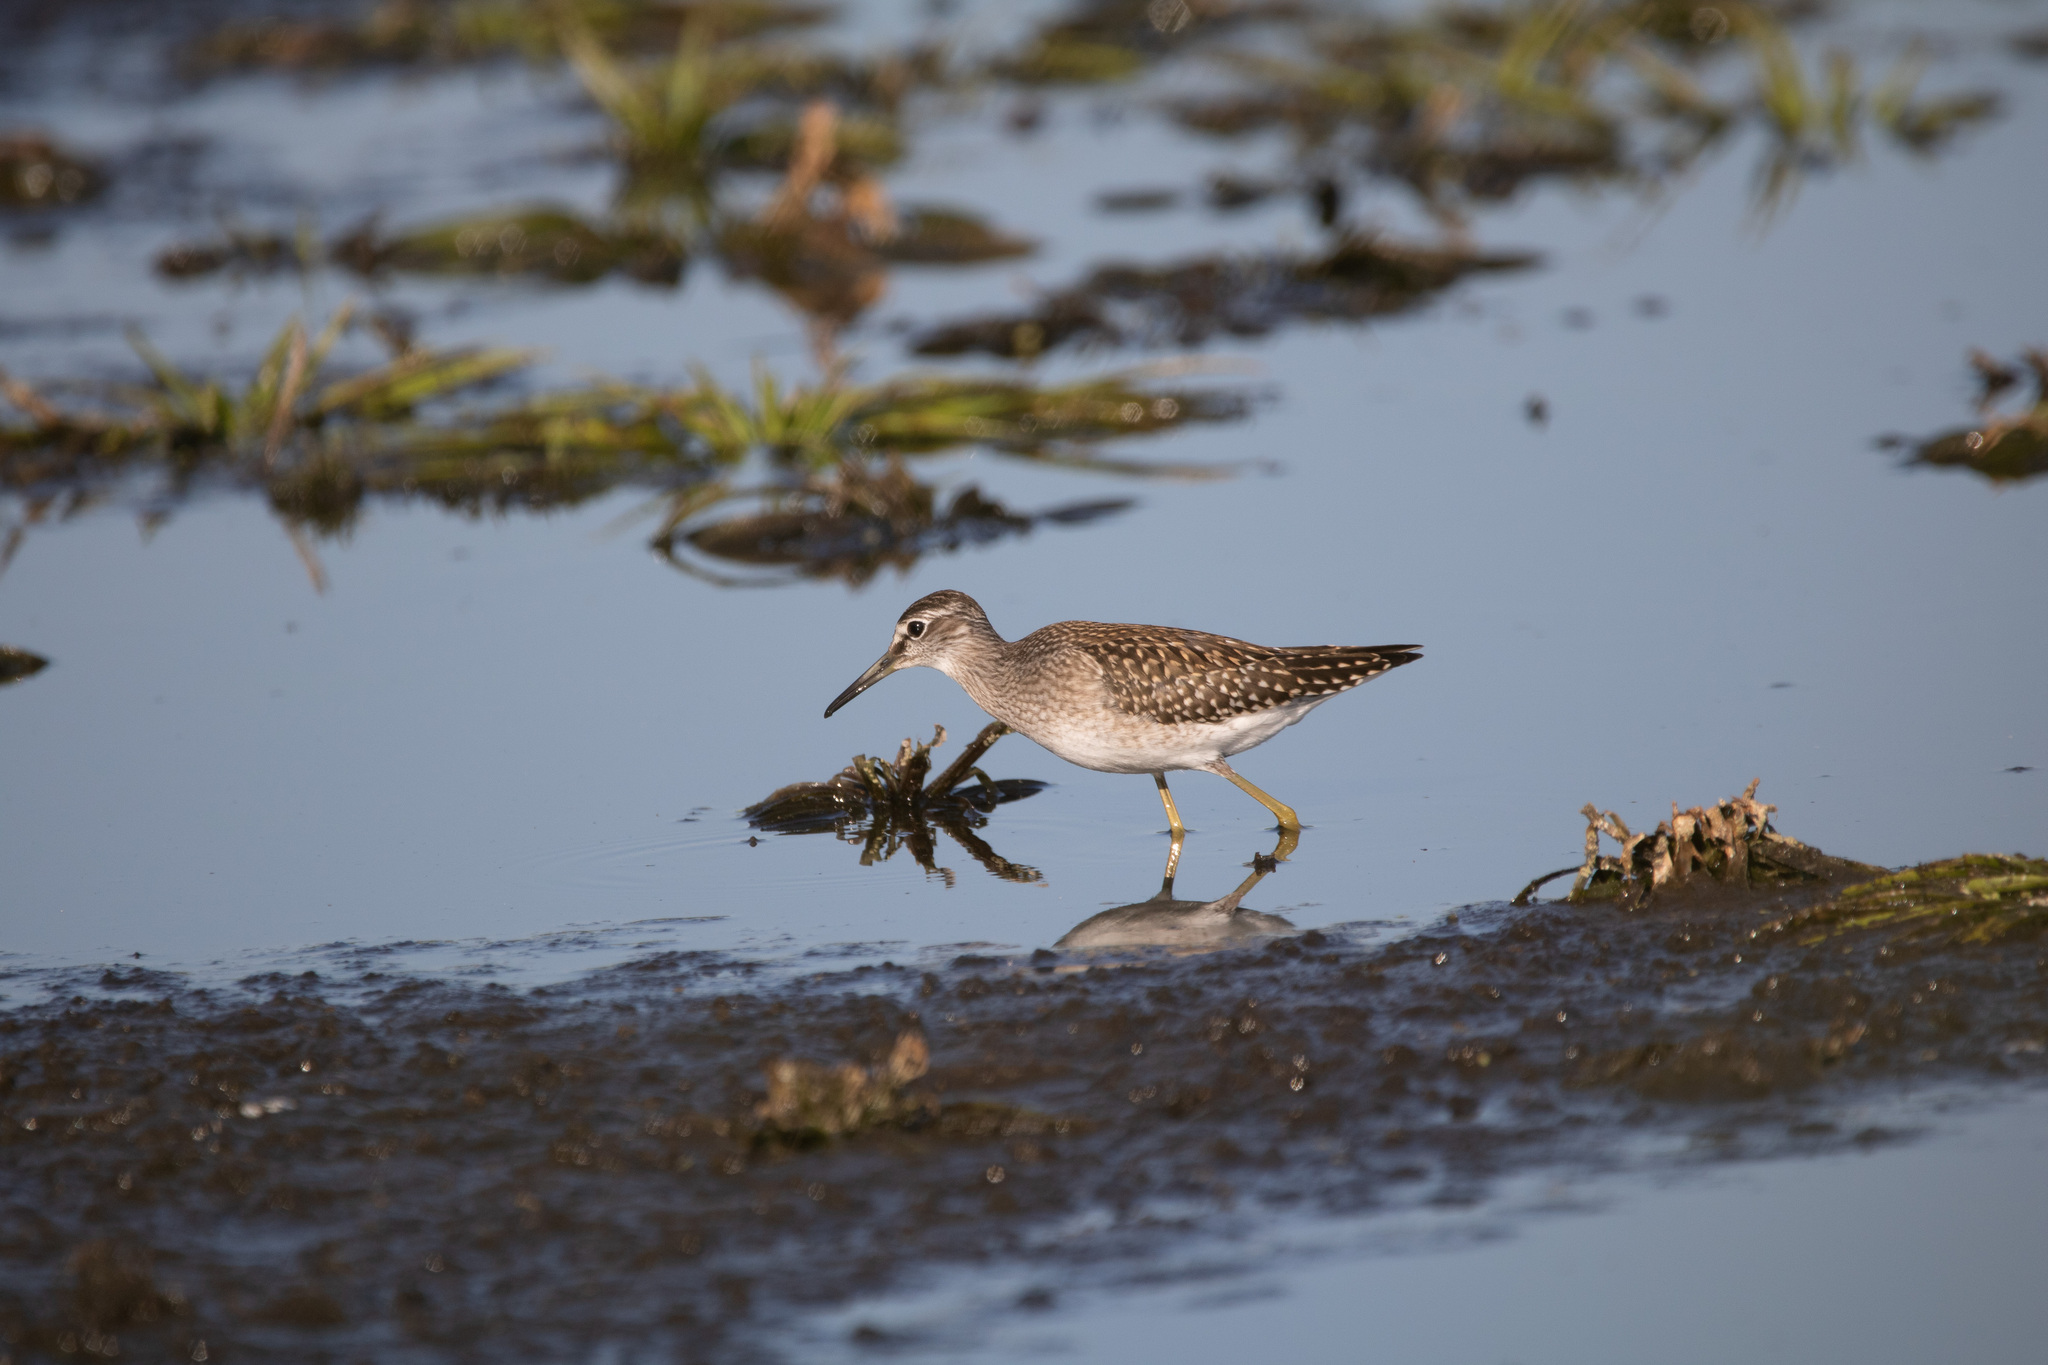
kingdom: Animalia
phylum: Chordata
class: Aves
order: Charadriiformes
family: Scolopacidae
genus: Tringa
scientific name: Tringa glareola
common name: Wood sandpiper
